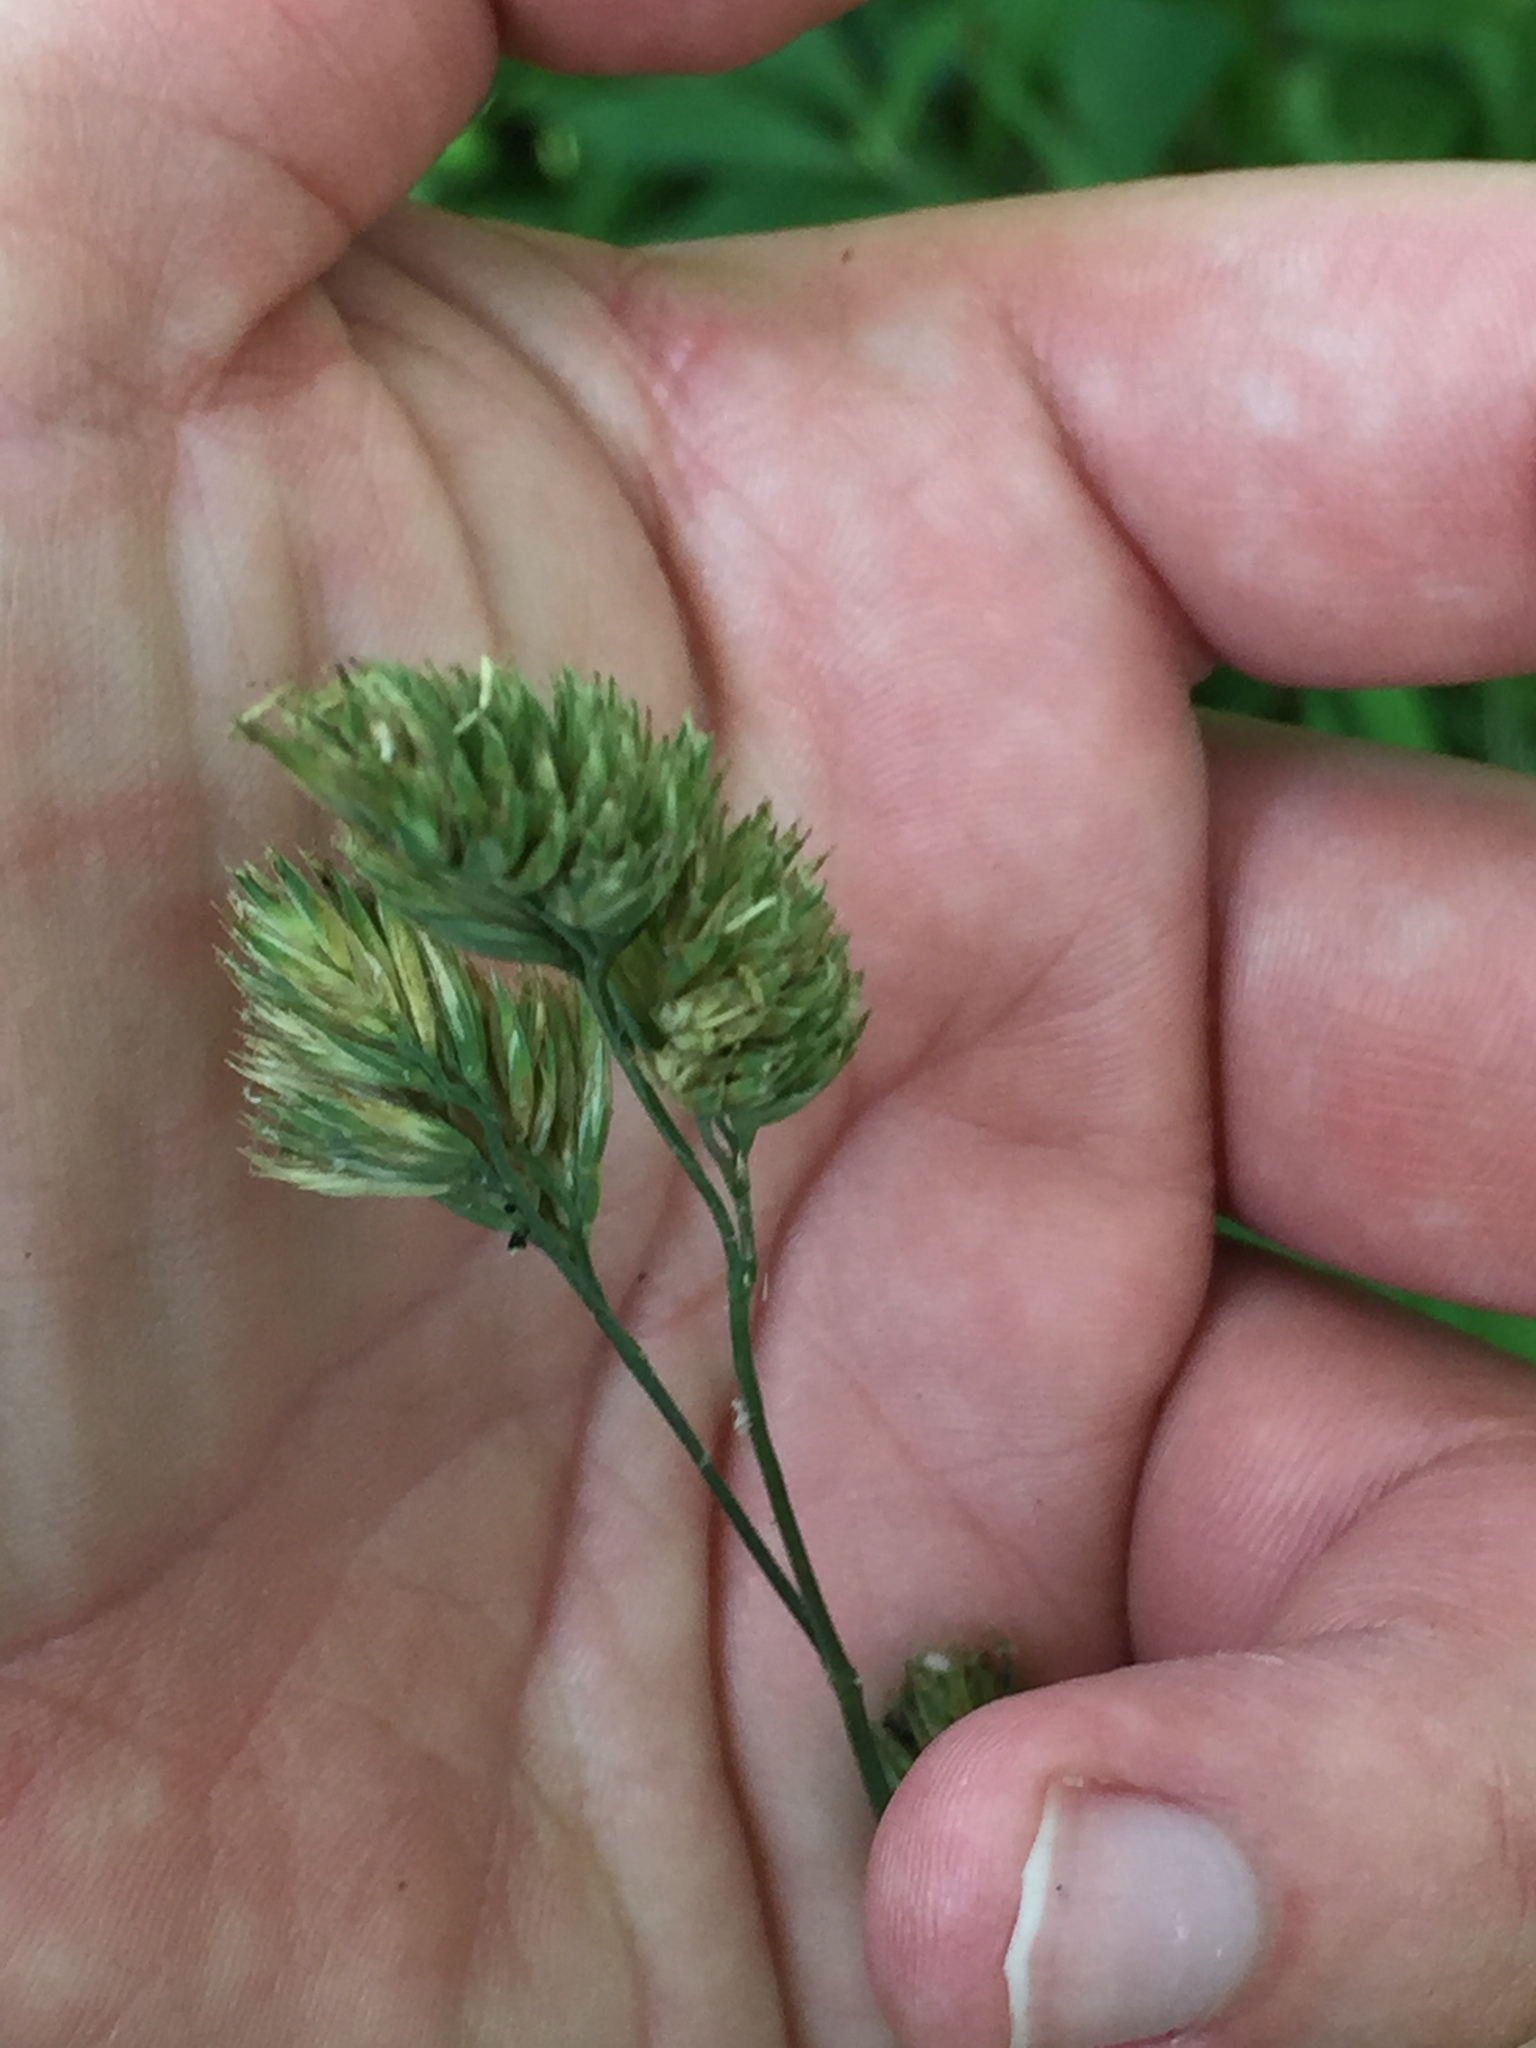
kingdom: Plantae
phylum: Tracheophyta
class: Liliopsida
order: Poales
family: Poaceae
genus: Dactylis
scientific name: Dactylis glomerata
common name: Orchardgrass
